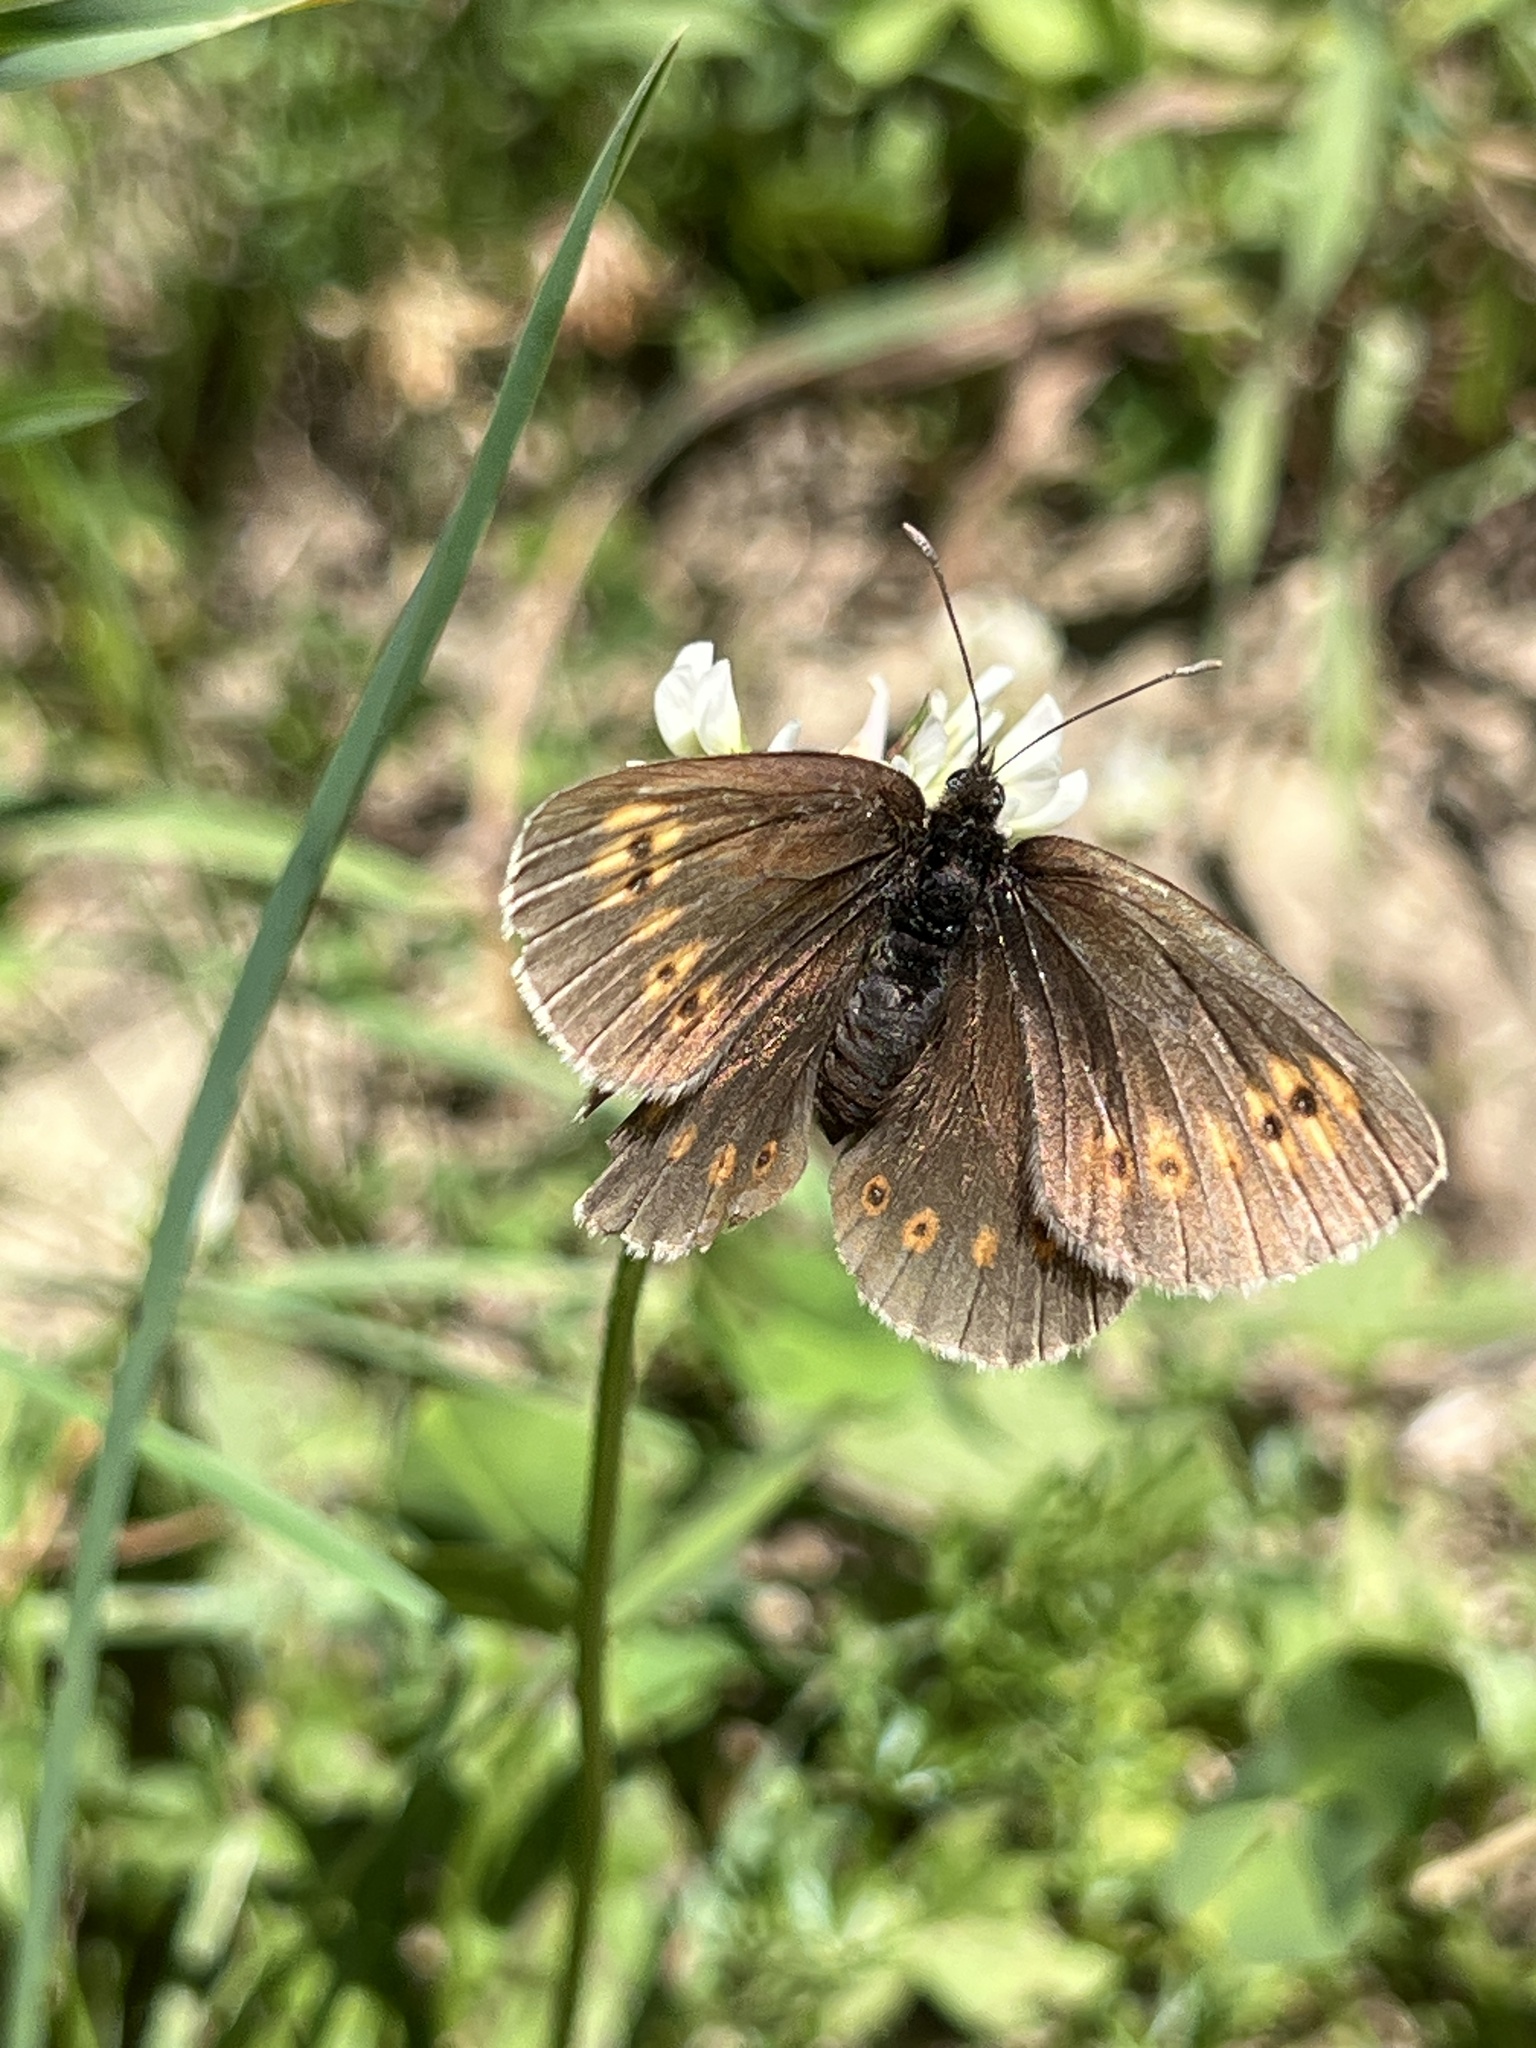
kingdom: Animalia
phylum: Arthropoda
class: Insecta
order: Lepidoptera
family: Nymphalidae
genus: Erebia
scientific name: Erebia alberganus
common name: Almond-eyed ringlet
